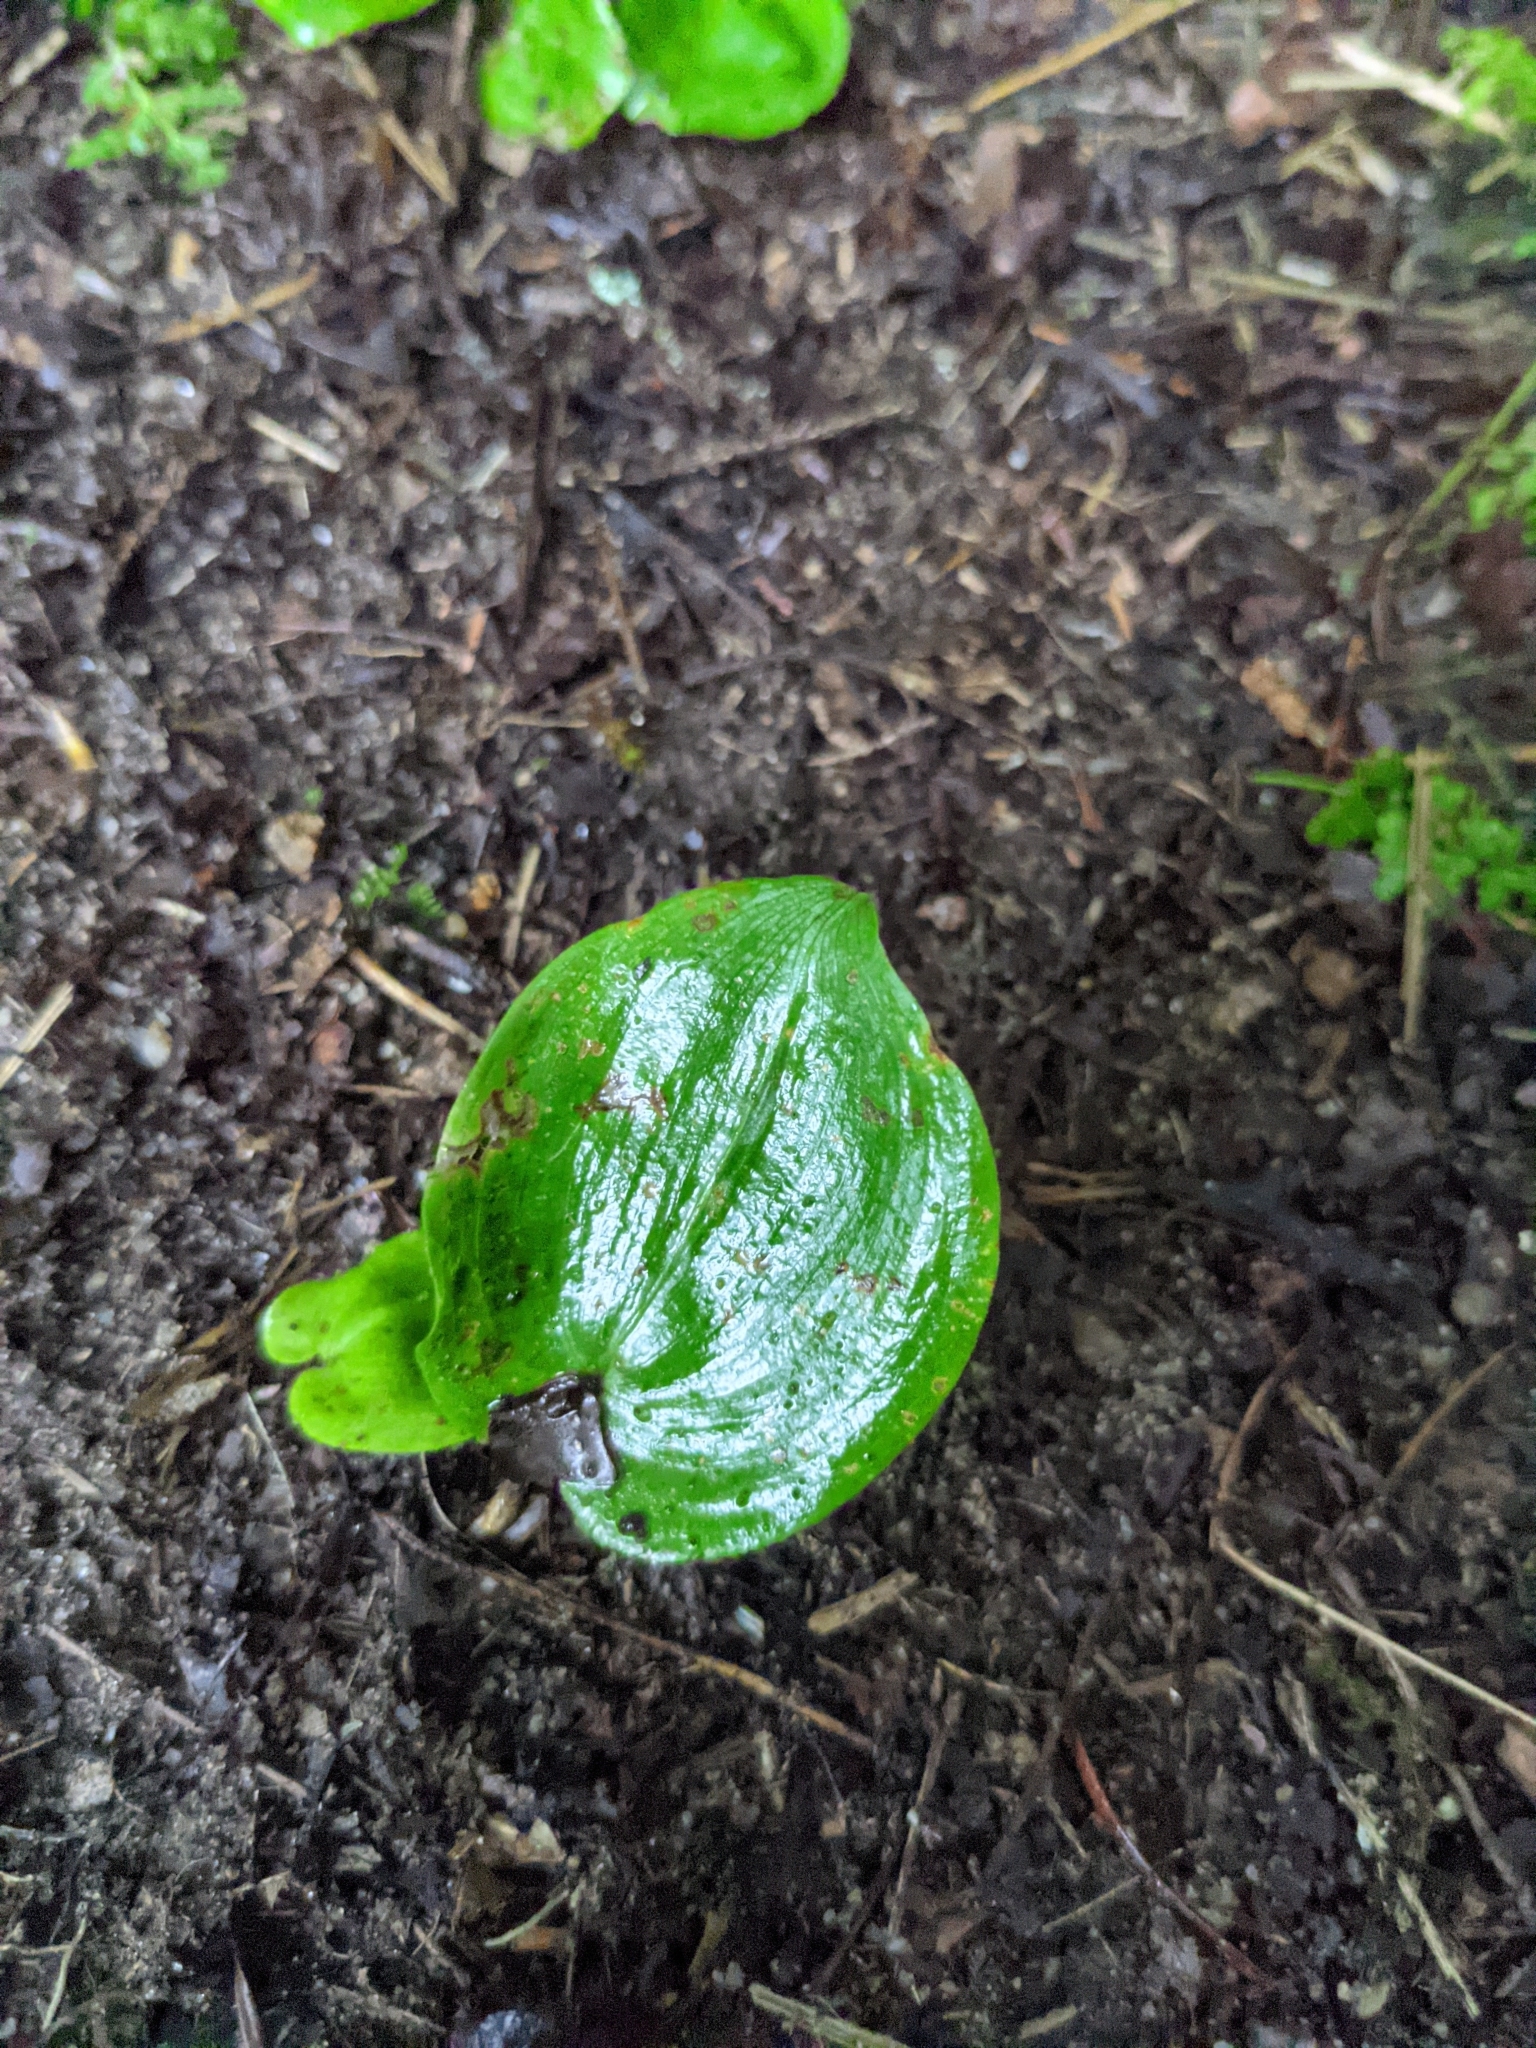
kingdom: Plantae
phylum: Tracheophyta
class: Liliopsida
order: Asparagales
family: Asparagaceae
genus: Maianthemum
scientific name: Maianthemum canadense
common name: False lily-of-the-valley
